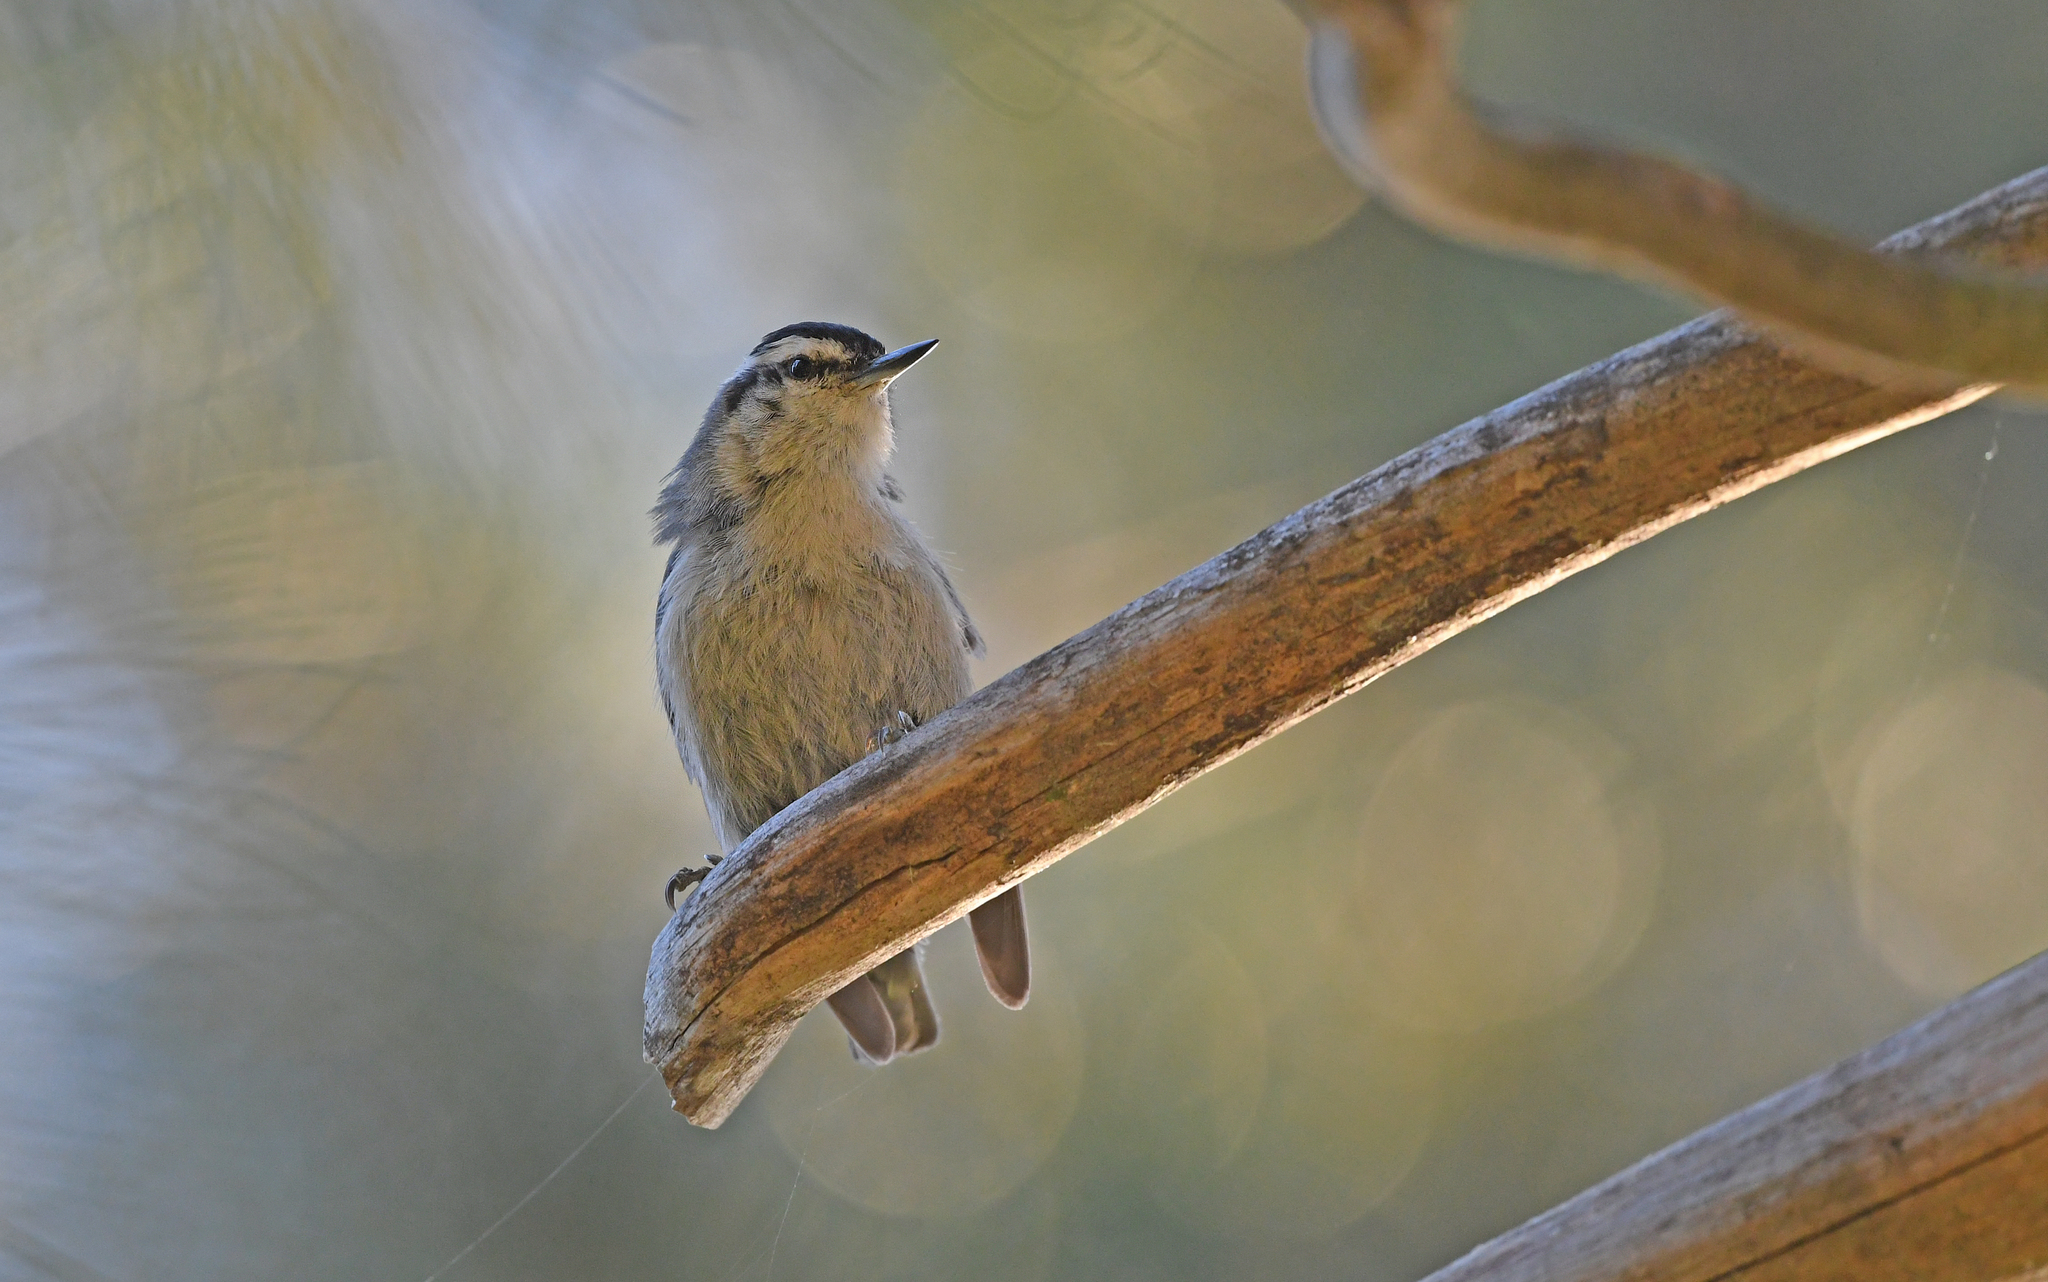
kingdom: Animalia
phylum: Chordata
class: Aves
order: Passeriformes
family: Sittidae
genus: Sitta
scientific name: Sitta whiteheadi
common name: Corsican nuthatch
